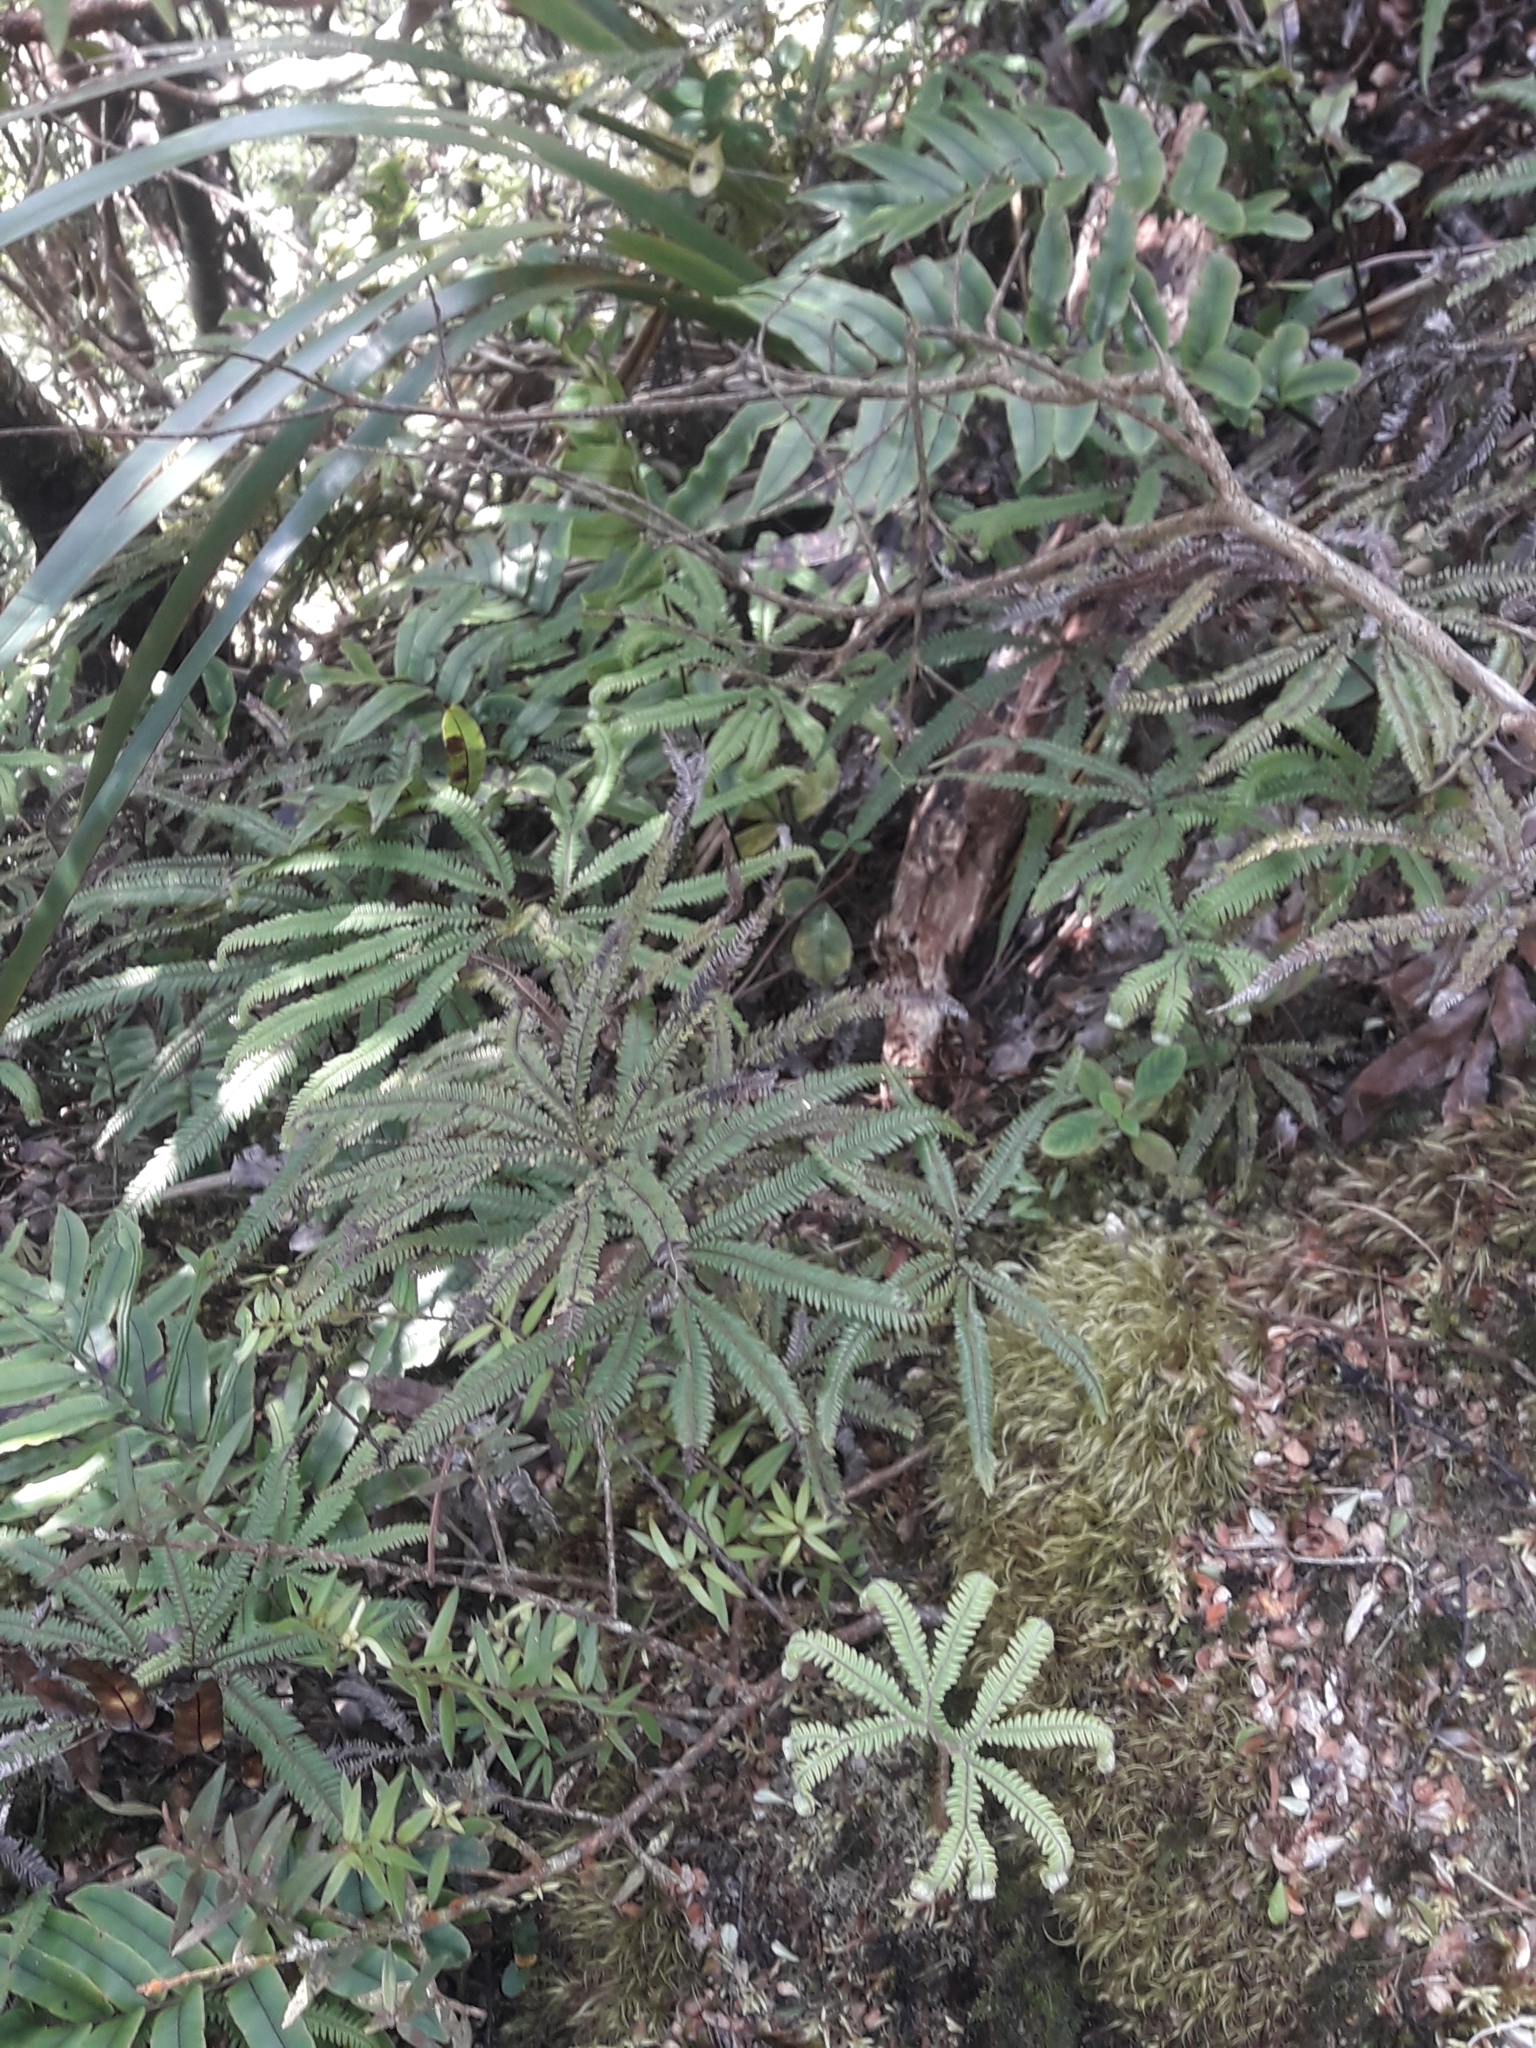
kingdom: Plantae
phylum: Tracheophyta
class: Polypodiopsida
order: Gleicheniales
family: Gleicheniaceae
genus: Sticherus
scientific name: Sticherus cunninghamii
